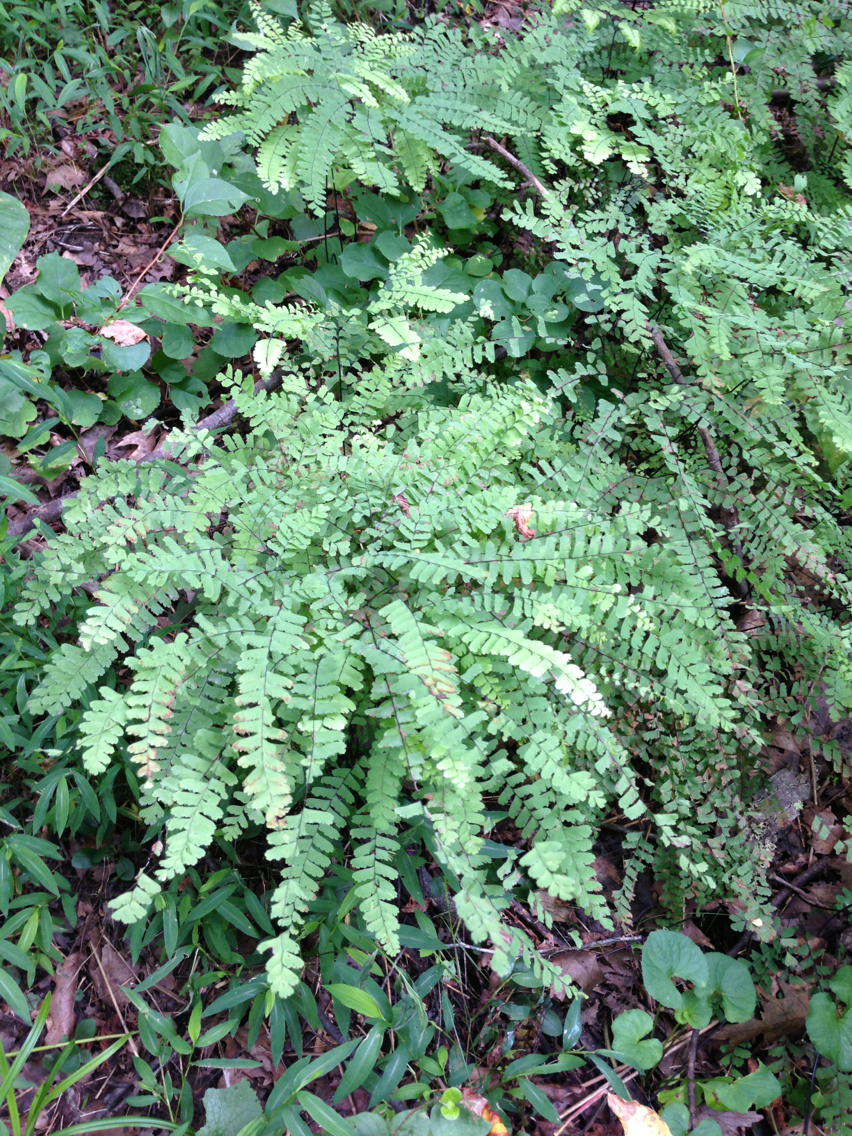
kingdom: Plantae
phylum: Tracheophyta
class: Polypodiopsida
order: Polypodiales
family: Pteridaceae
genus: Adiantum
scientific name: Adiantum pedatum
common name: Five-finger fern
